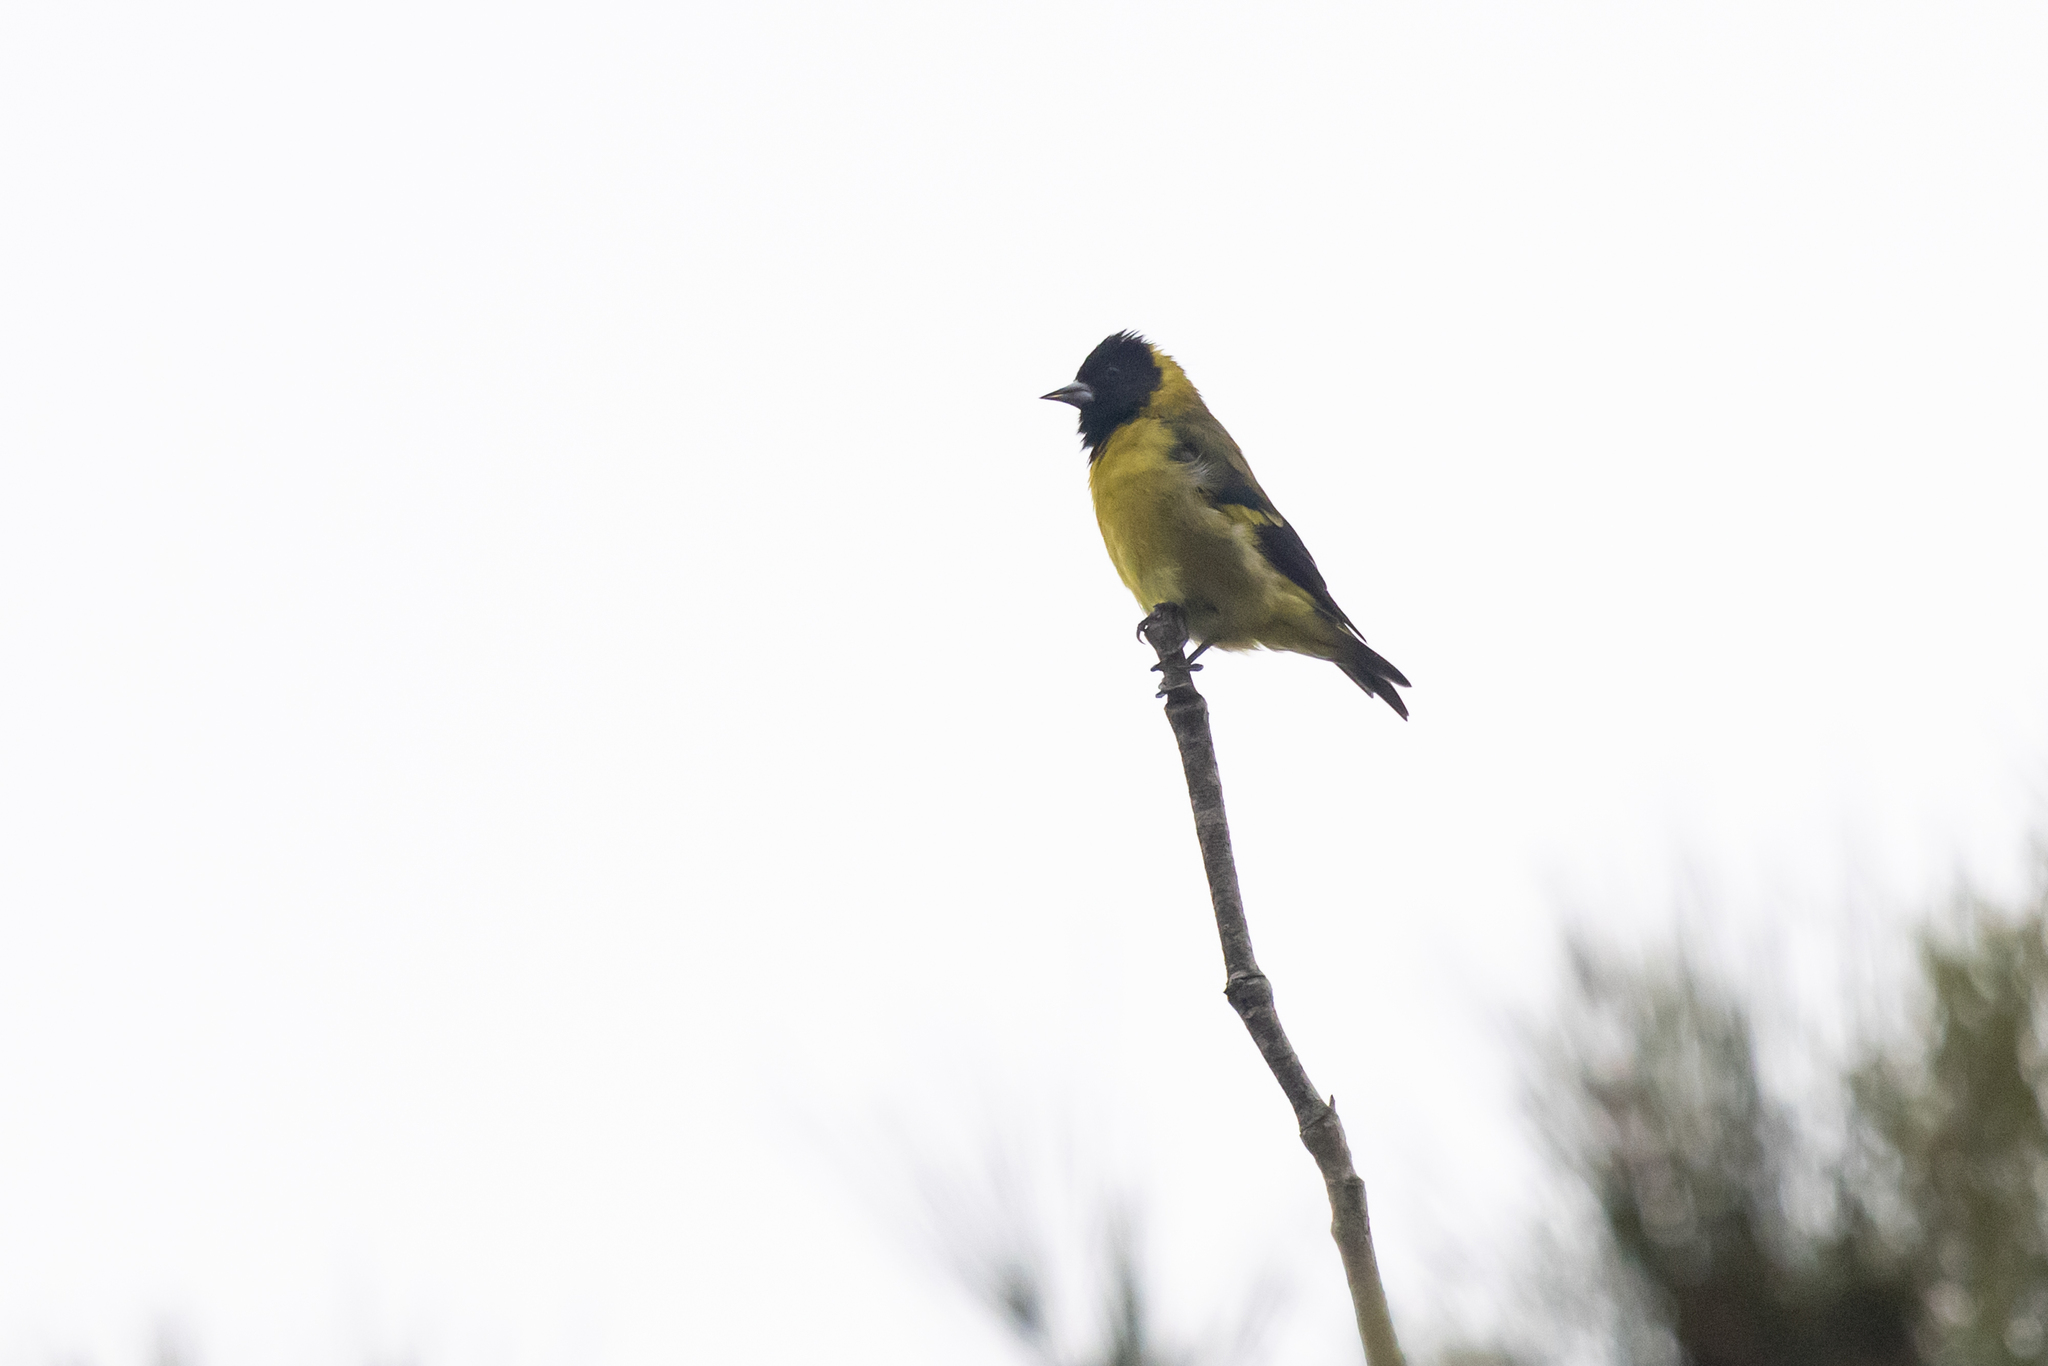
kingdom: Animalia
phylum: Chordata
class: Aves
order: Passeriformes
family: Fringillidae
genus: Spinus
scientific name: Spinus notatus
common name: Black-headed siskin
